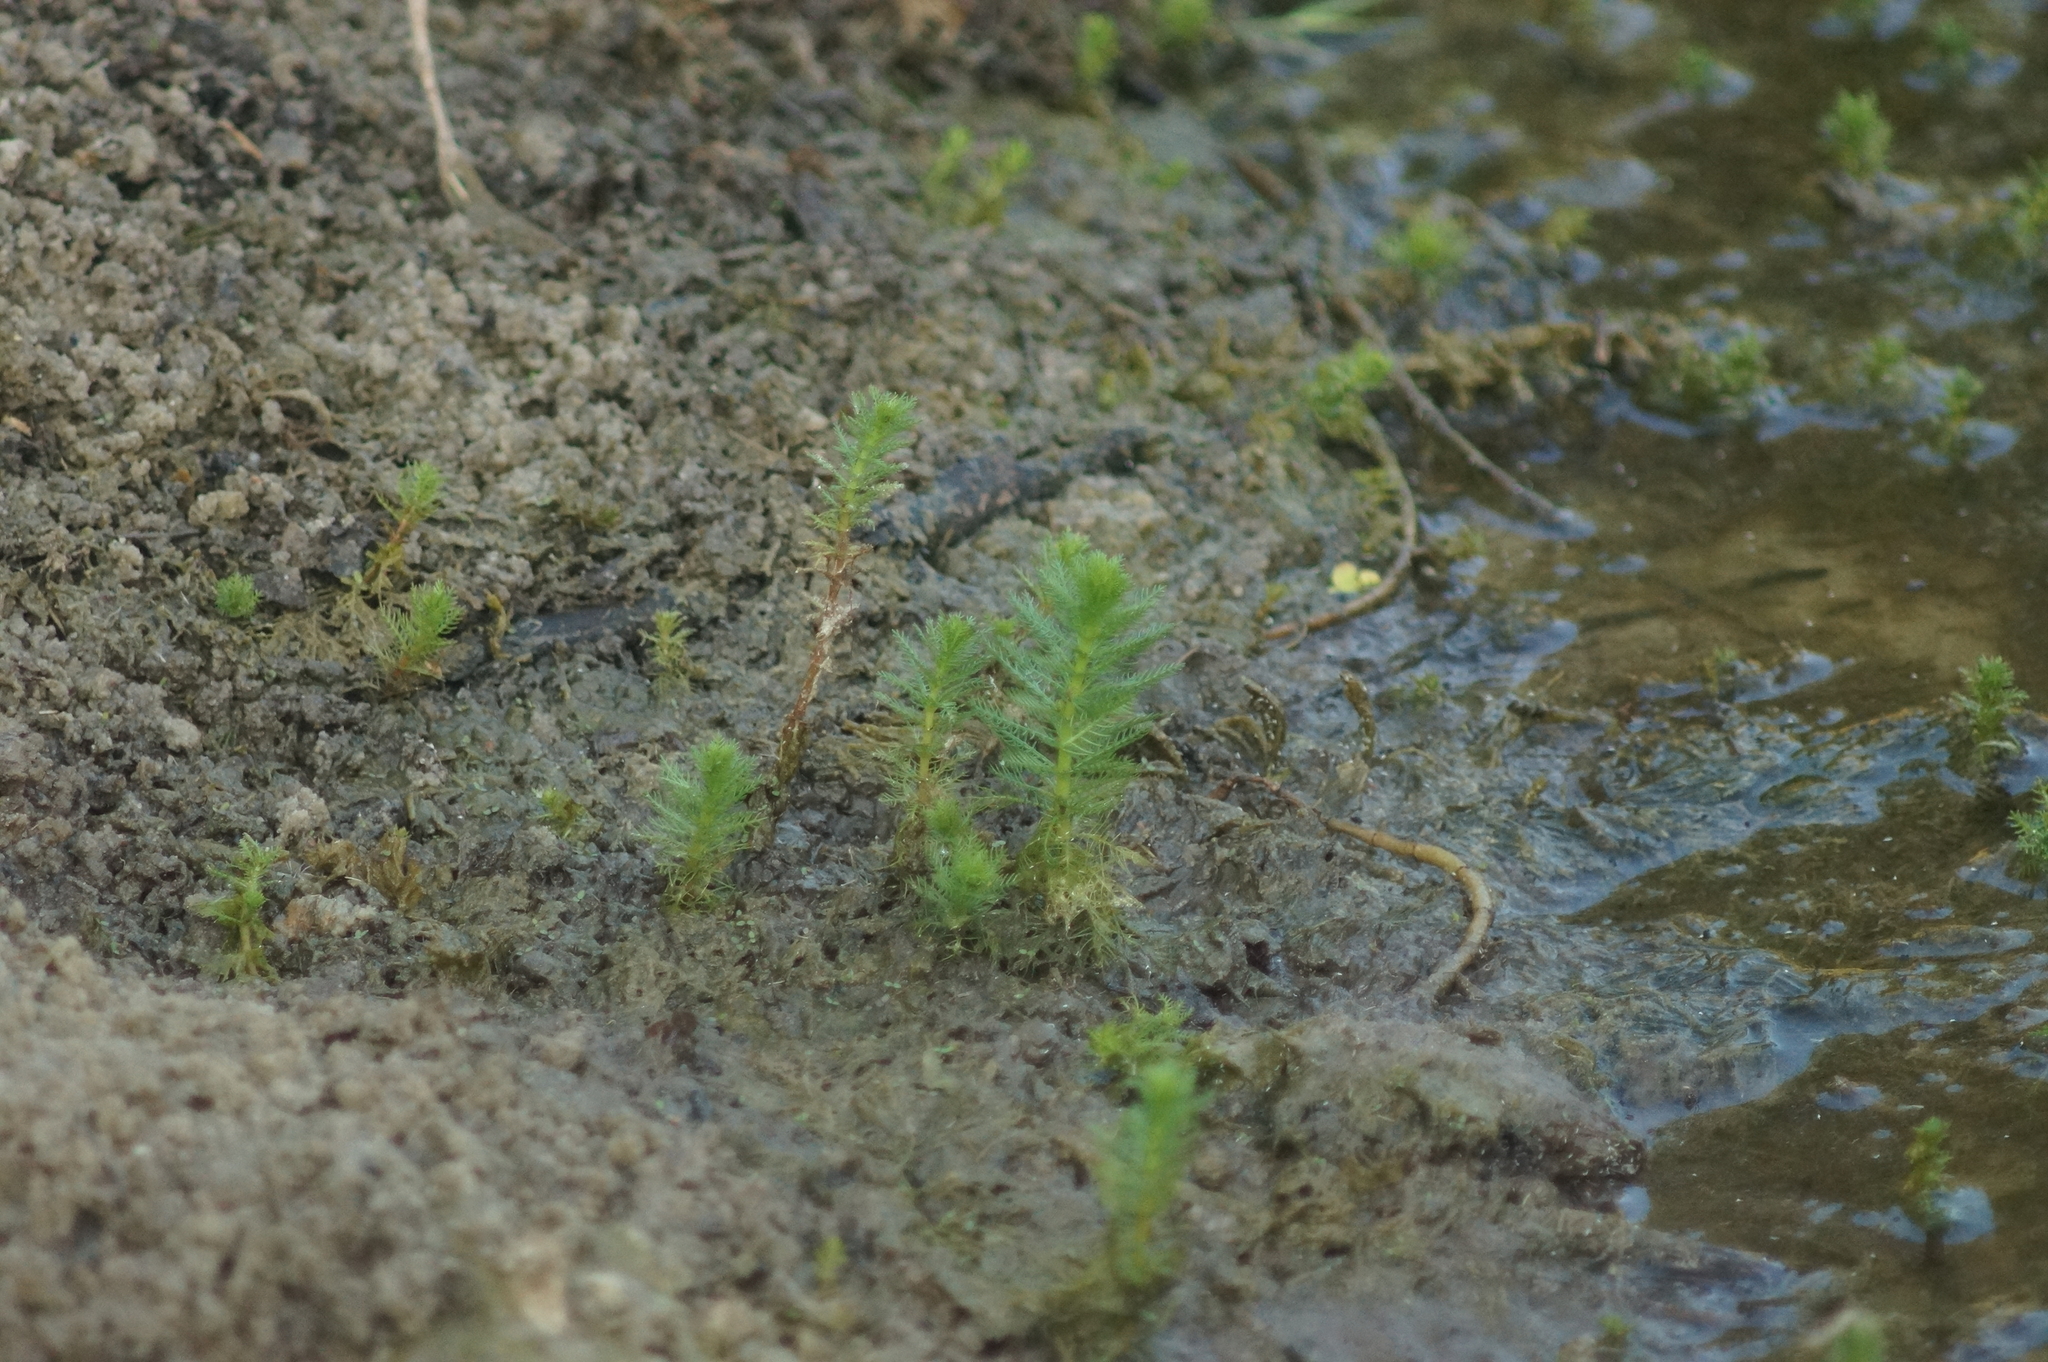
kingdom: Plantae
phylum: Tracheophyta
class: Magnoliopsida
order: Saxifragales
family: Haloragaceae
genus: Myriophyllum
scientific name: Myriophyllum verticillatum
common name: Whorled water-milfoil
